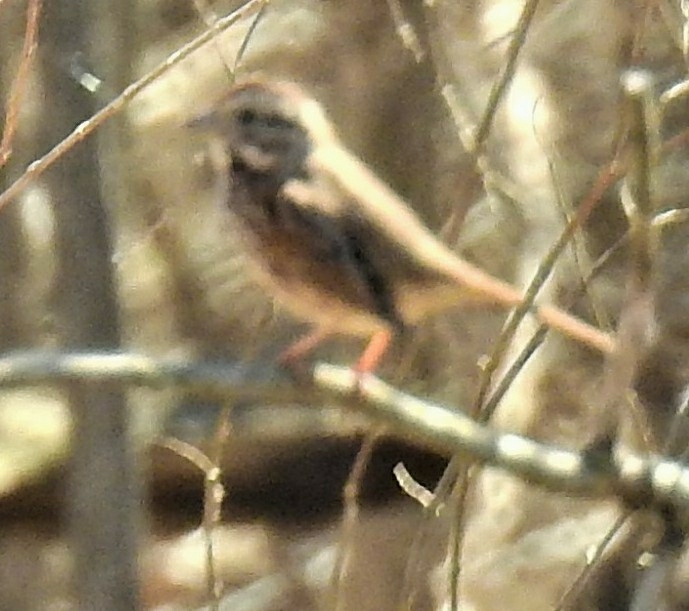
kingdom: Animalia
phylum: Chordata
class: Aves
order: Passeriformes
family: Passerellidae
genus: Melospiza
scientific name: Melospiza melodia
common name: Song sparrow
